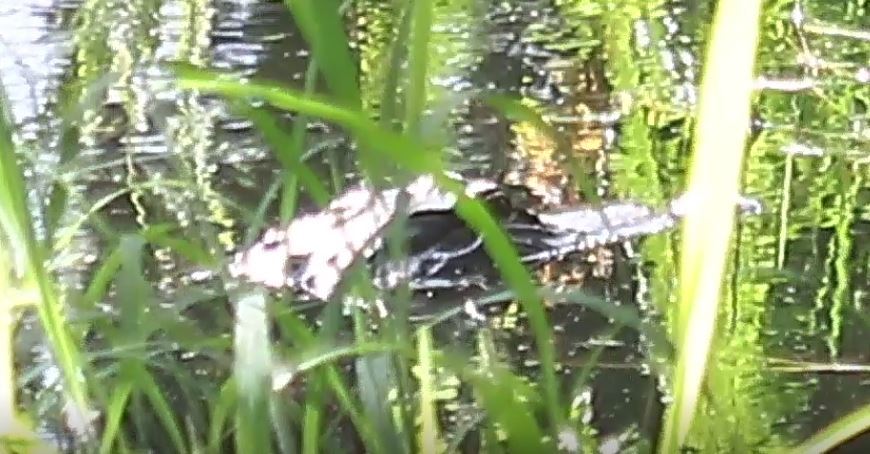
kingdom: Animalia
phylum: Chordata
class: Crocodylia
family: Alligatoridae
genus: Alligator
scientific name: Alligator mississippiensis
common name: American alligator
